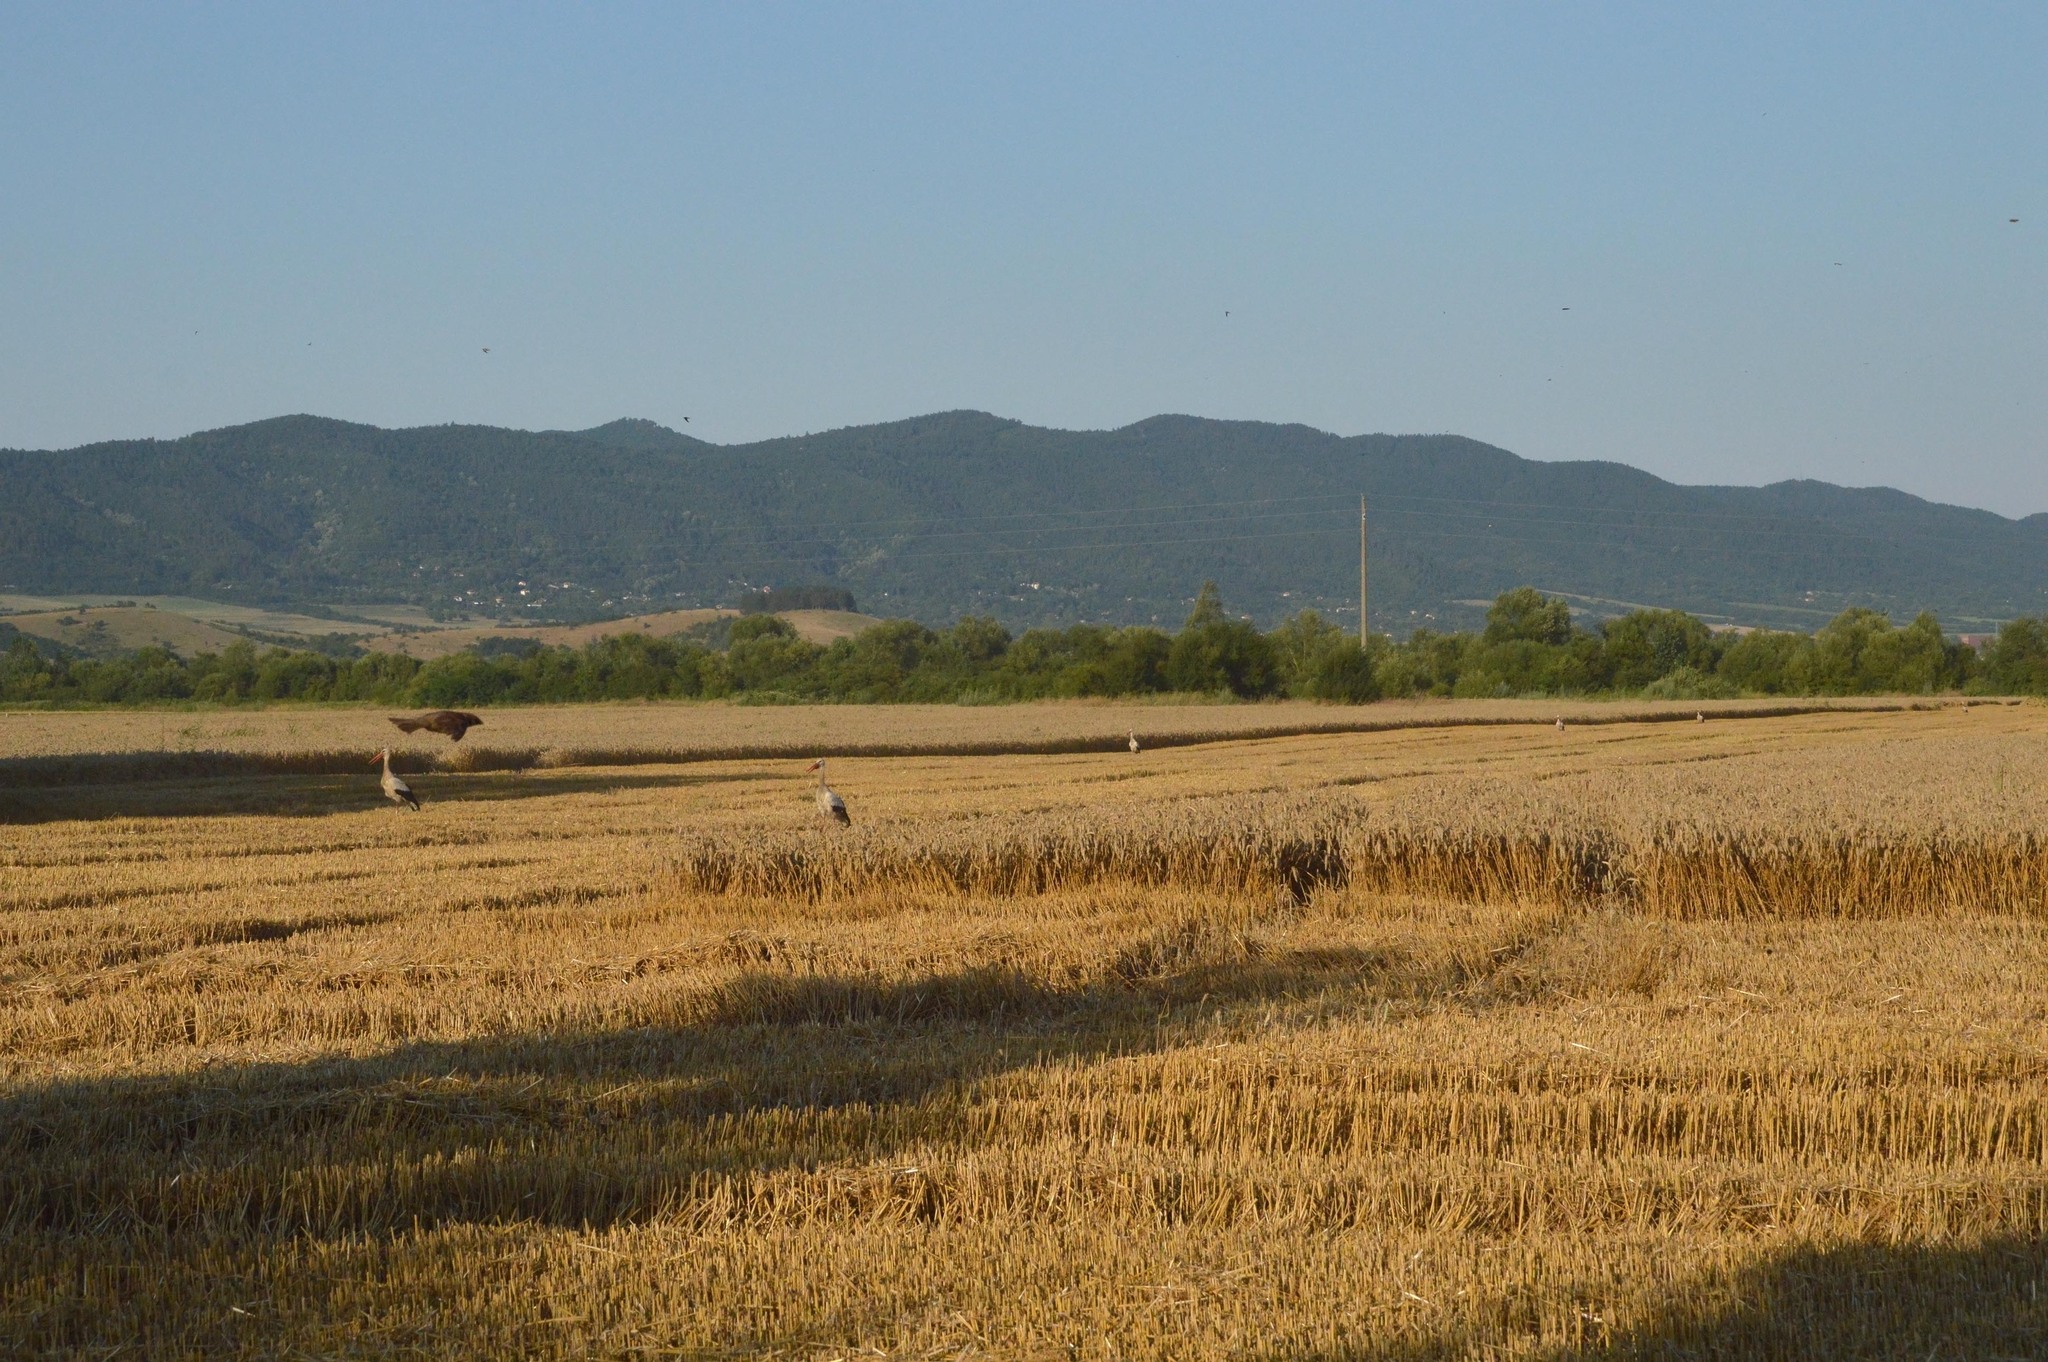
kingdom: Animalia
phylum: Chordata
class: Aves
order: Ciconiiformes
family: Ciconiidae
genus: Ciconia
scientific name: Ciconia ciconia
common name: White stork
